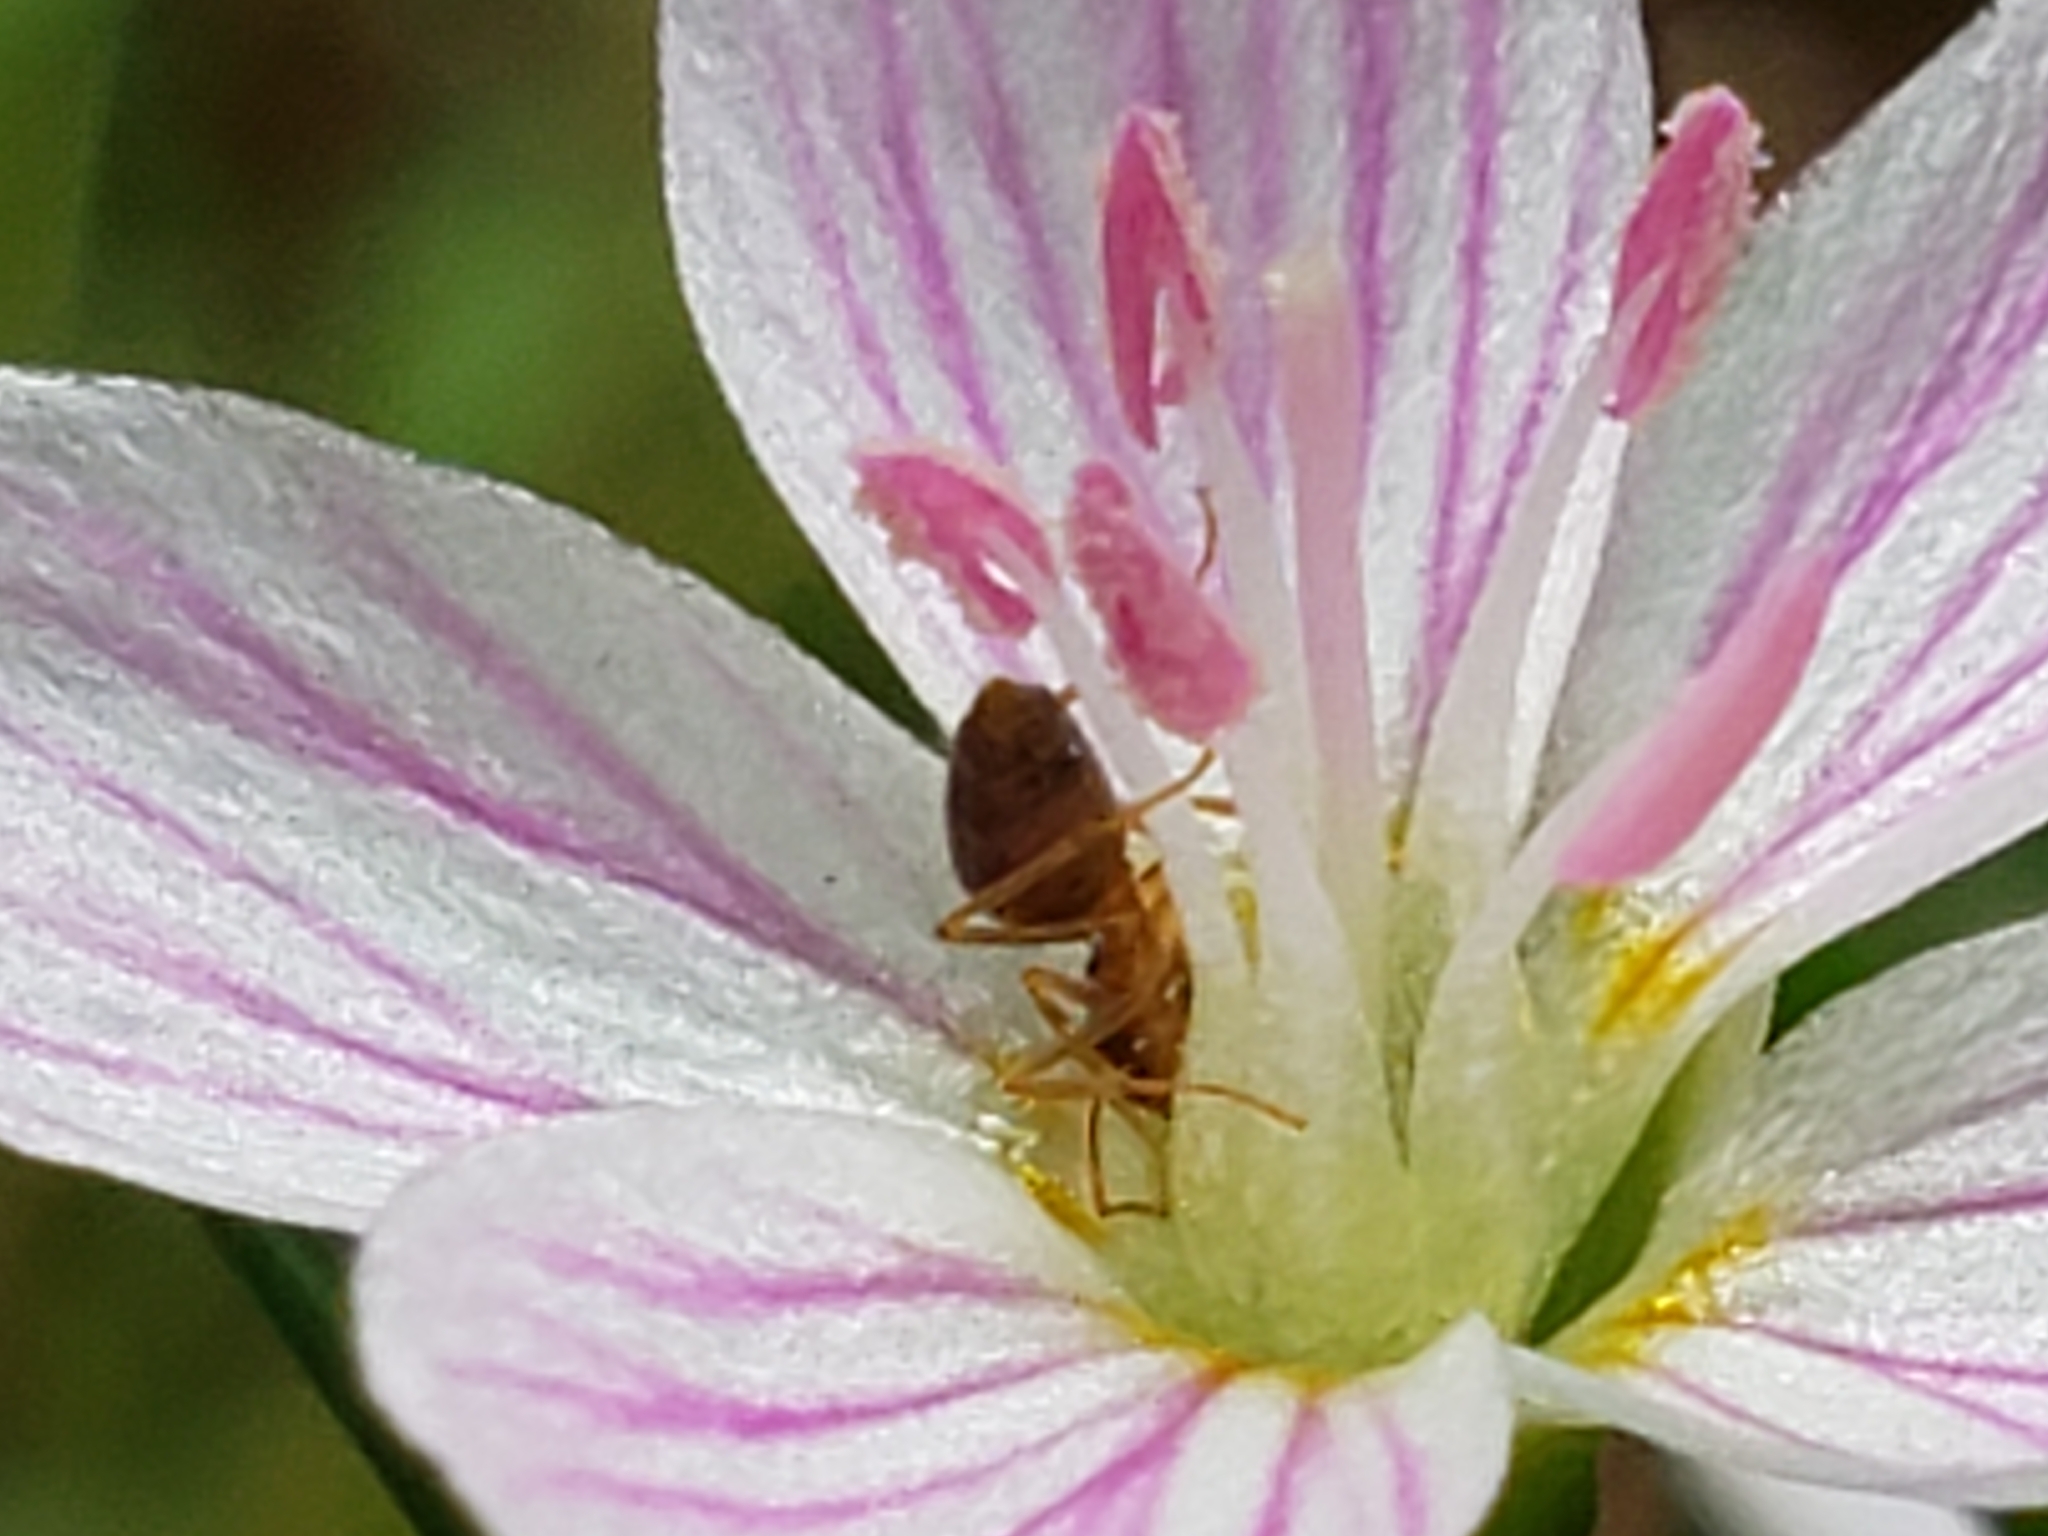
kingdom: Animalia
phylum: Arthropoda
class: Insecta
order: Hymenoptera
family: Formicidae
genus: Prenolepis
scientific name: Prenolepis imparis
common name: Small honey ant
